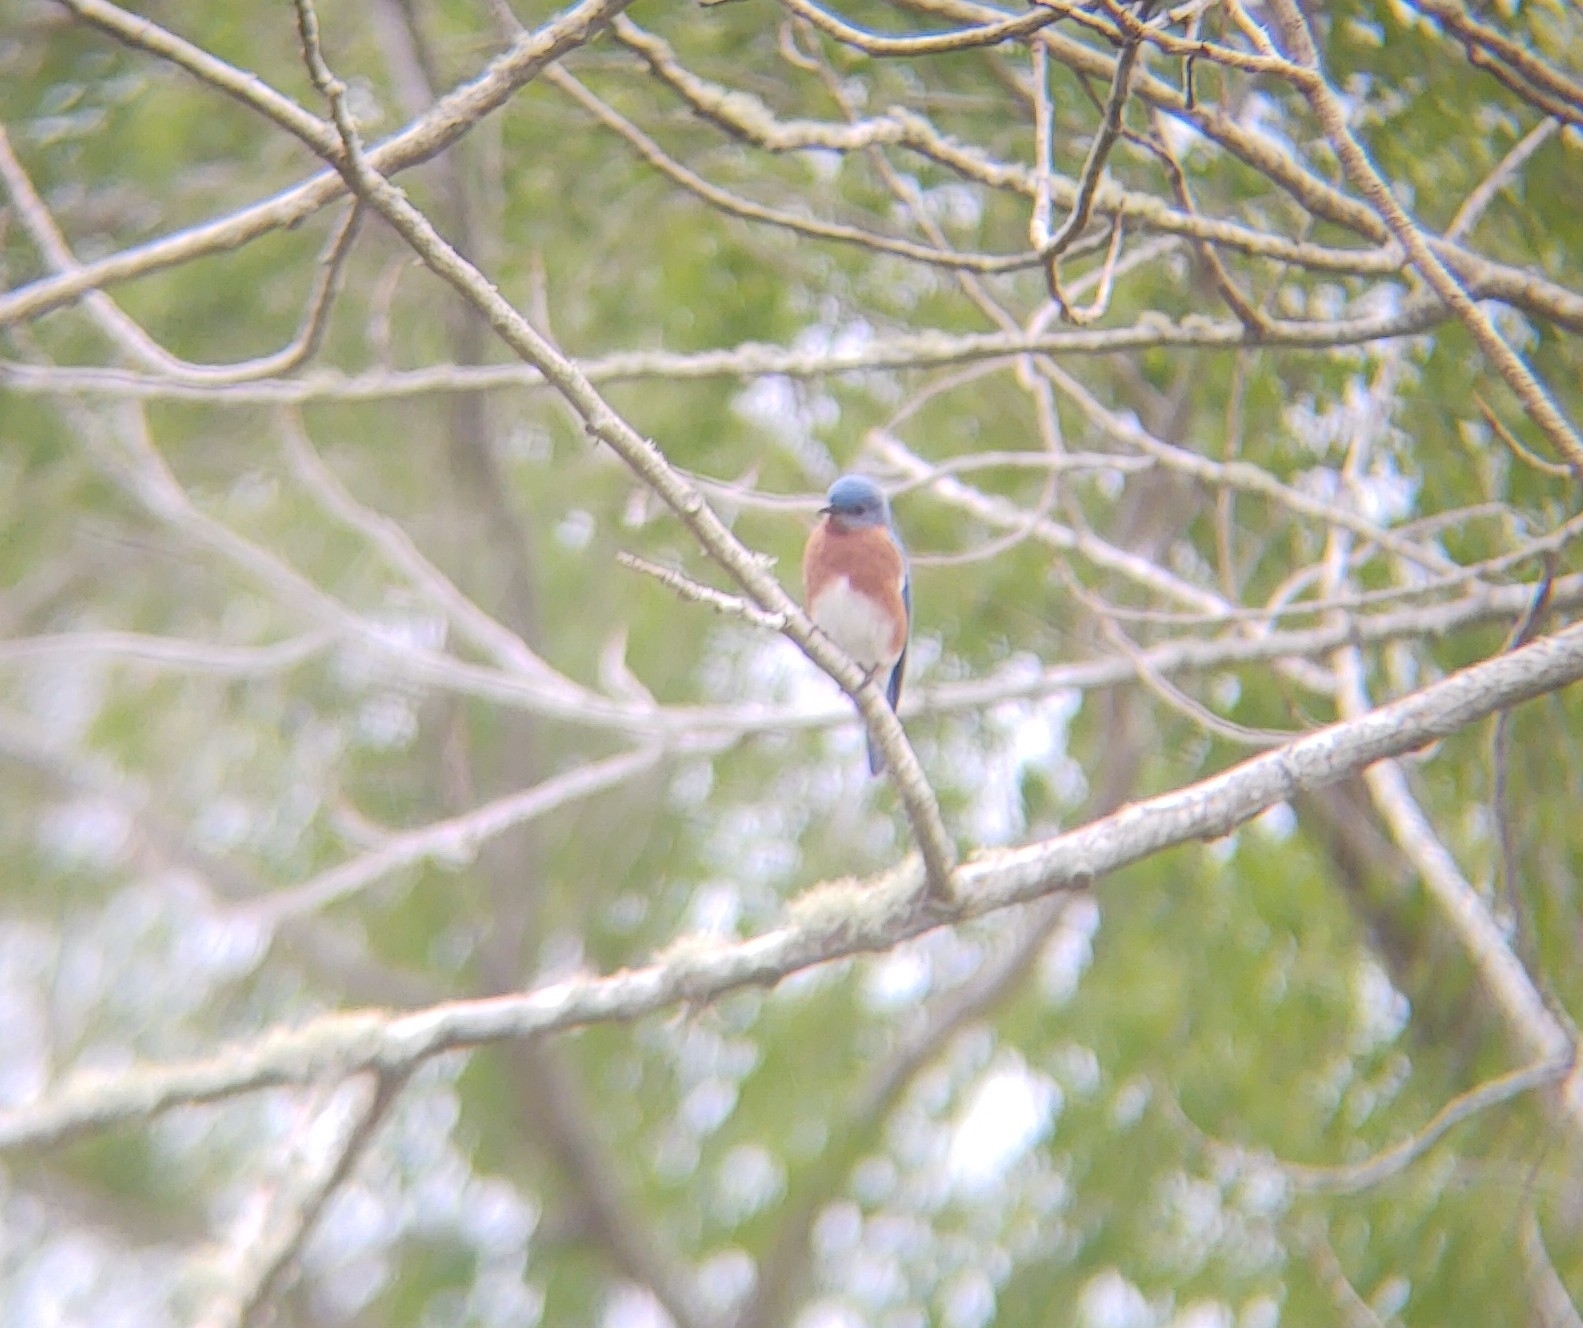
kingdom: Animalia
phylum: Chordata
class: Aves
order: Passeriformes
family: Turdidae
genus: Sialia
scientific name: Sialia sialis
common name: Eastern bluebird
